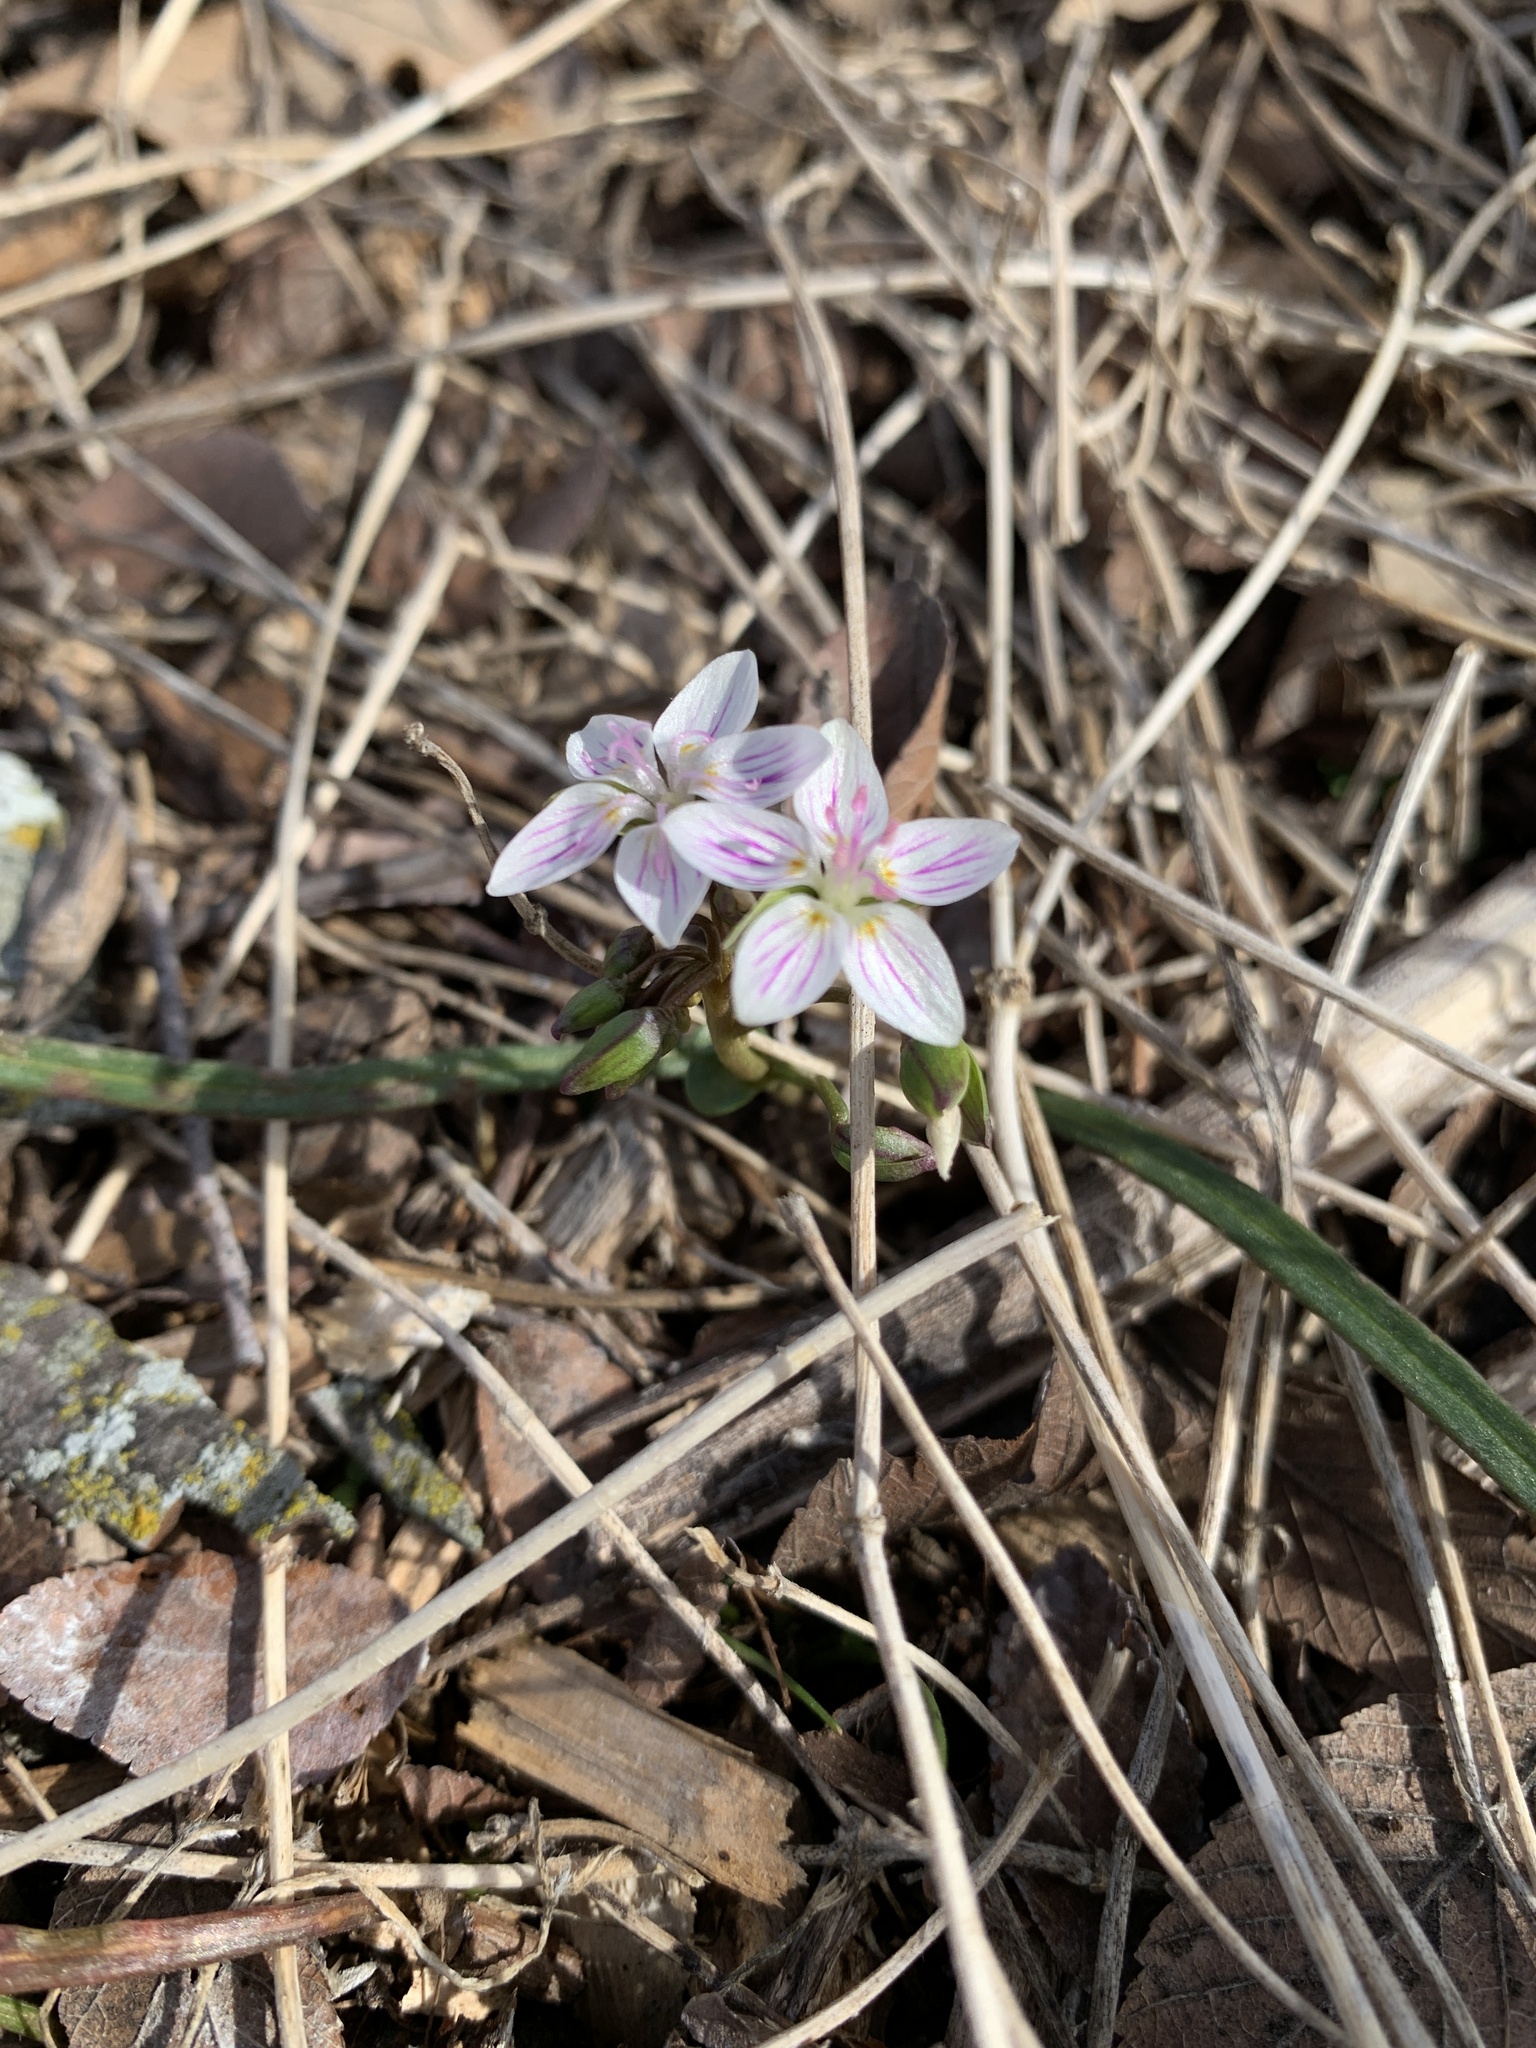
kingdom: Plantae
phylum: Tracheophyta
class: Magnoliopsida
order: Caryophyllales
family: Montiaceae
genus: Claytonia
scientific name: Claytonia virginica
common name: Virginia springbeauty
